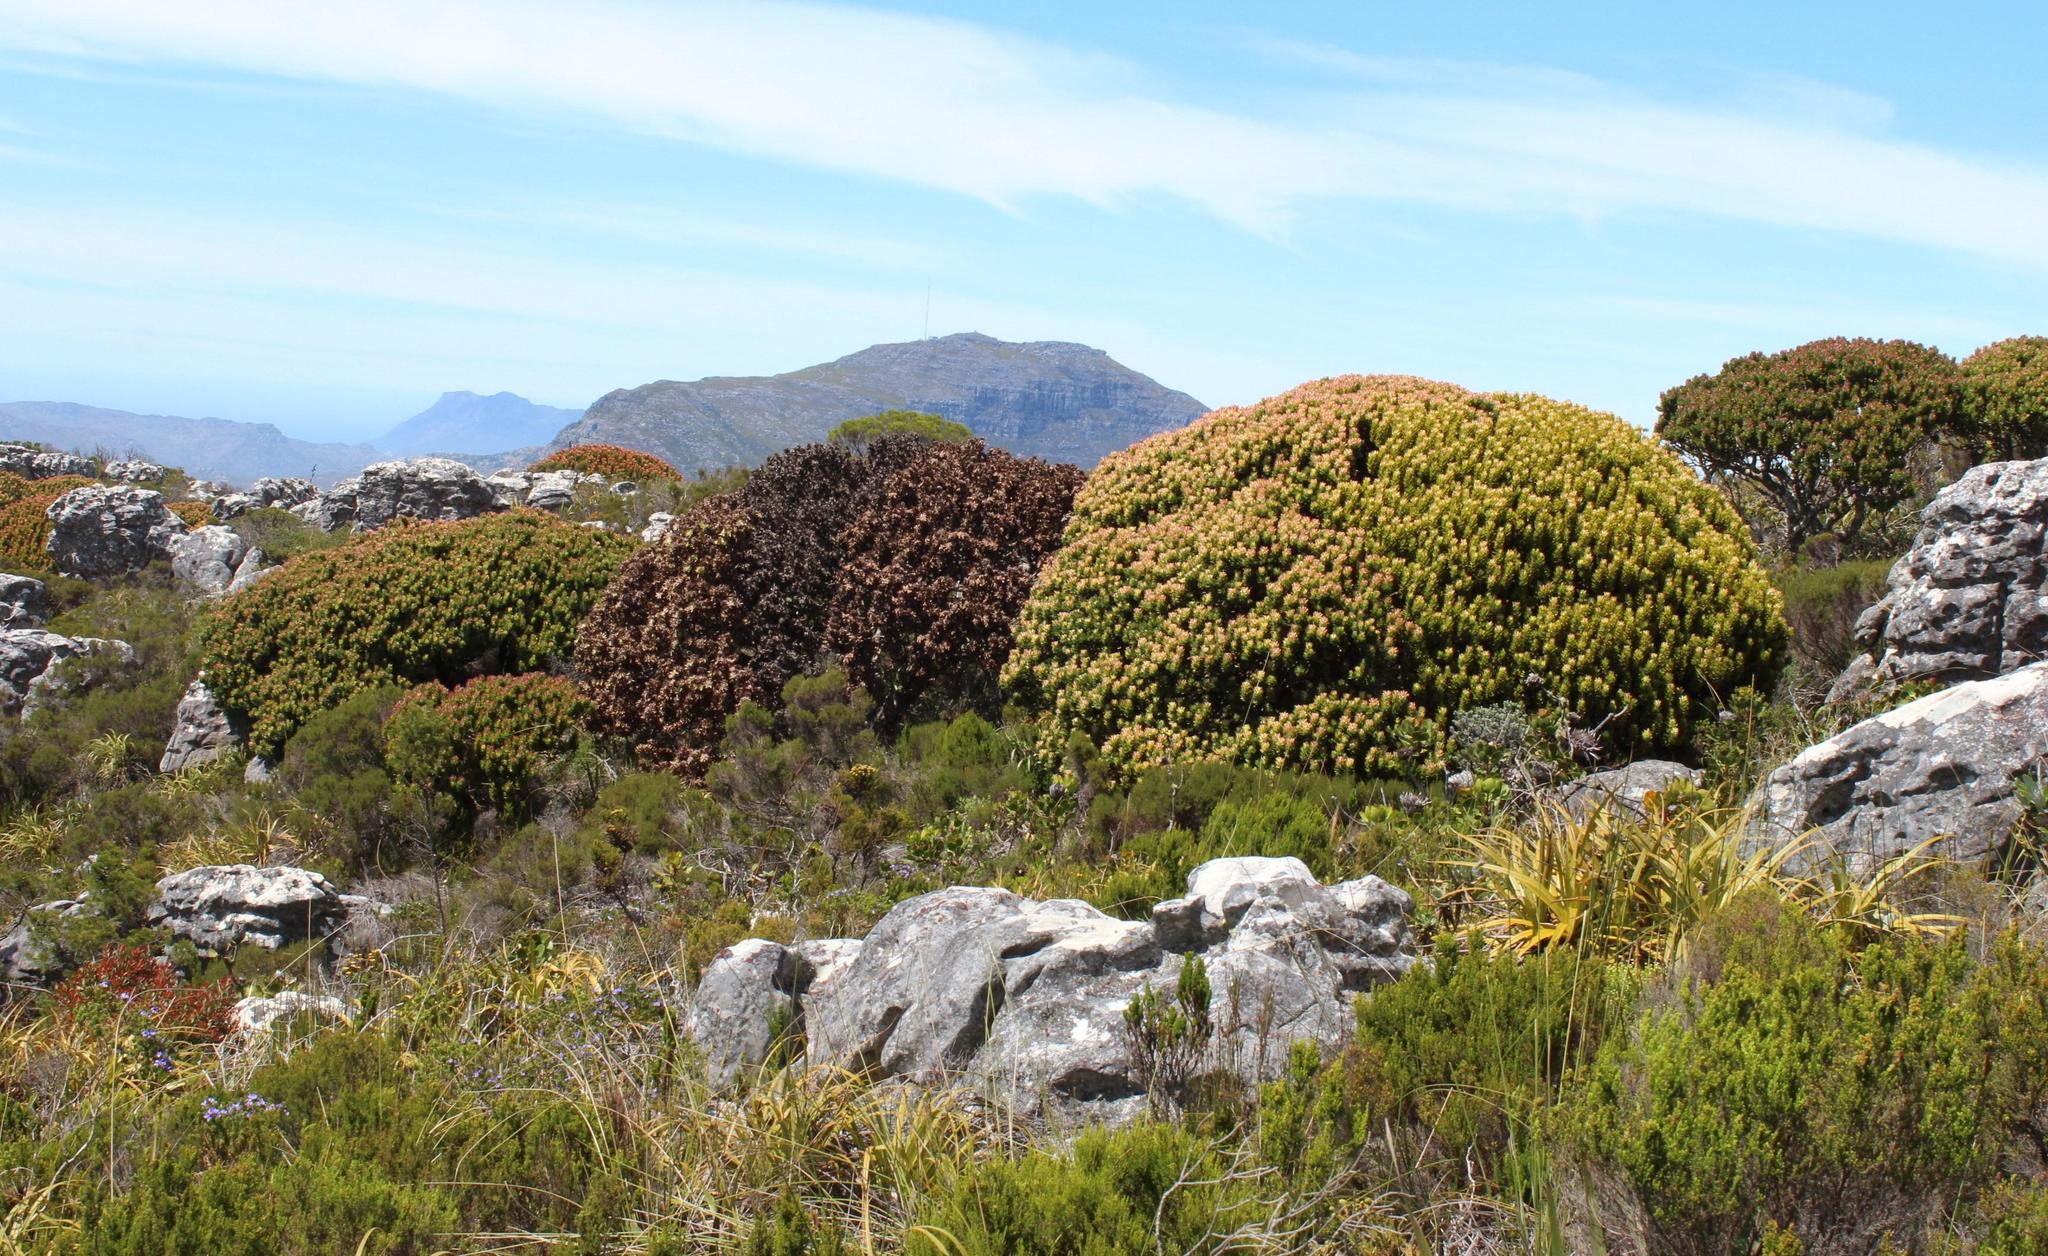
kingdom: Plantae
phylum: Tracheophyta
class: Magnoliopsida
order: Proteales
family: Proteaceae
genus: Mimetes
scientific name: Mimetes fimbriifolius
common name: Fringed bottlebrush
